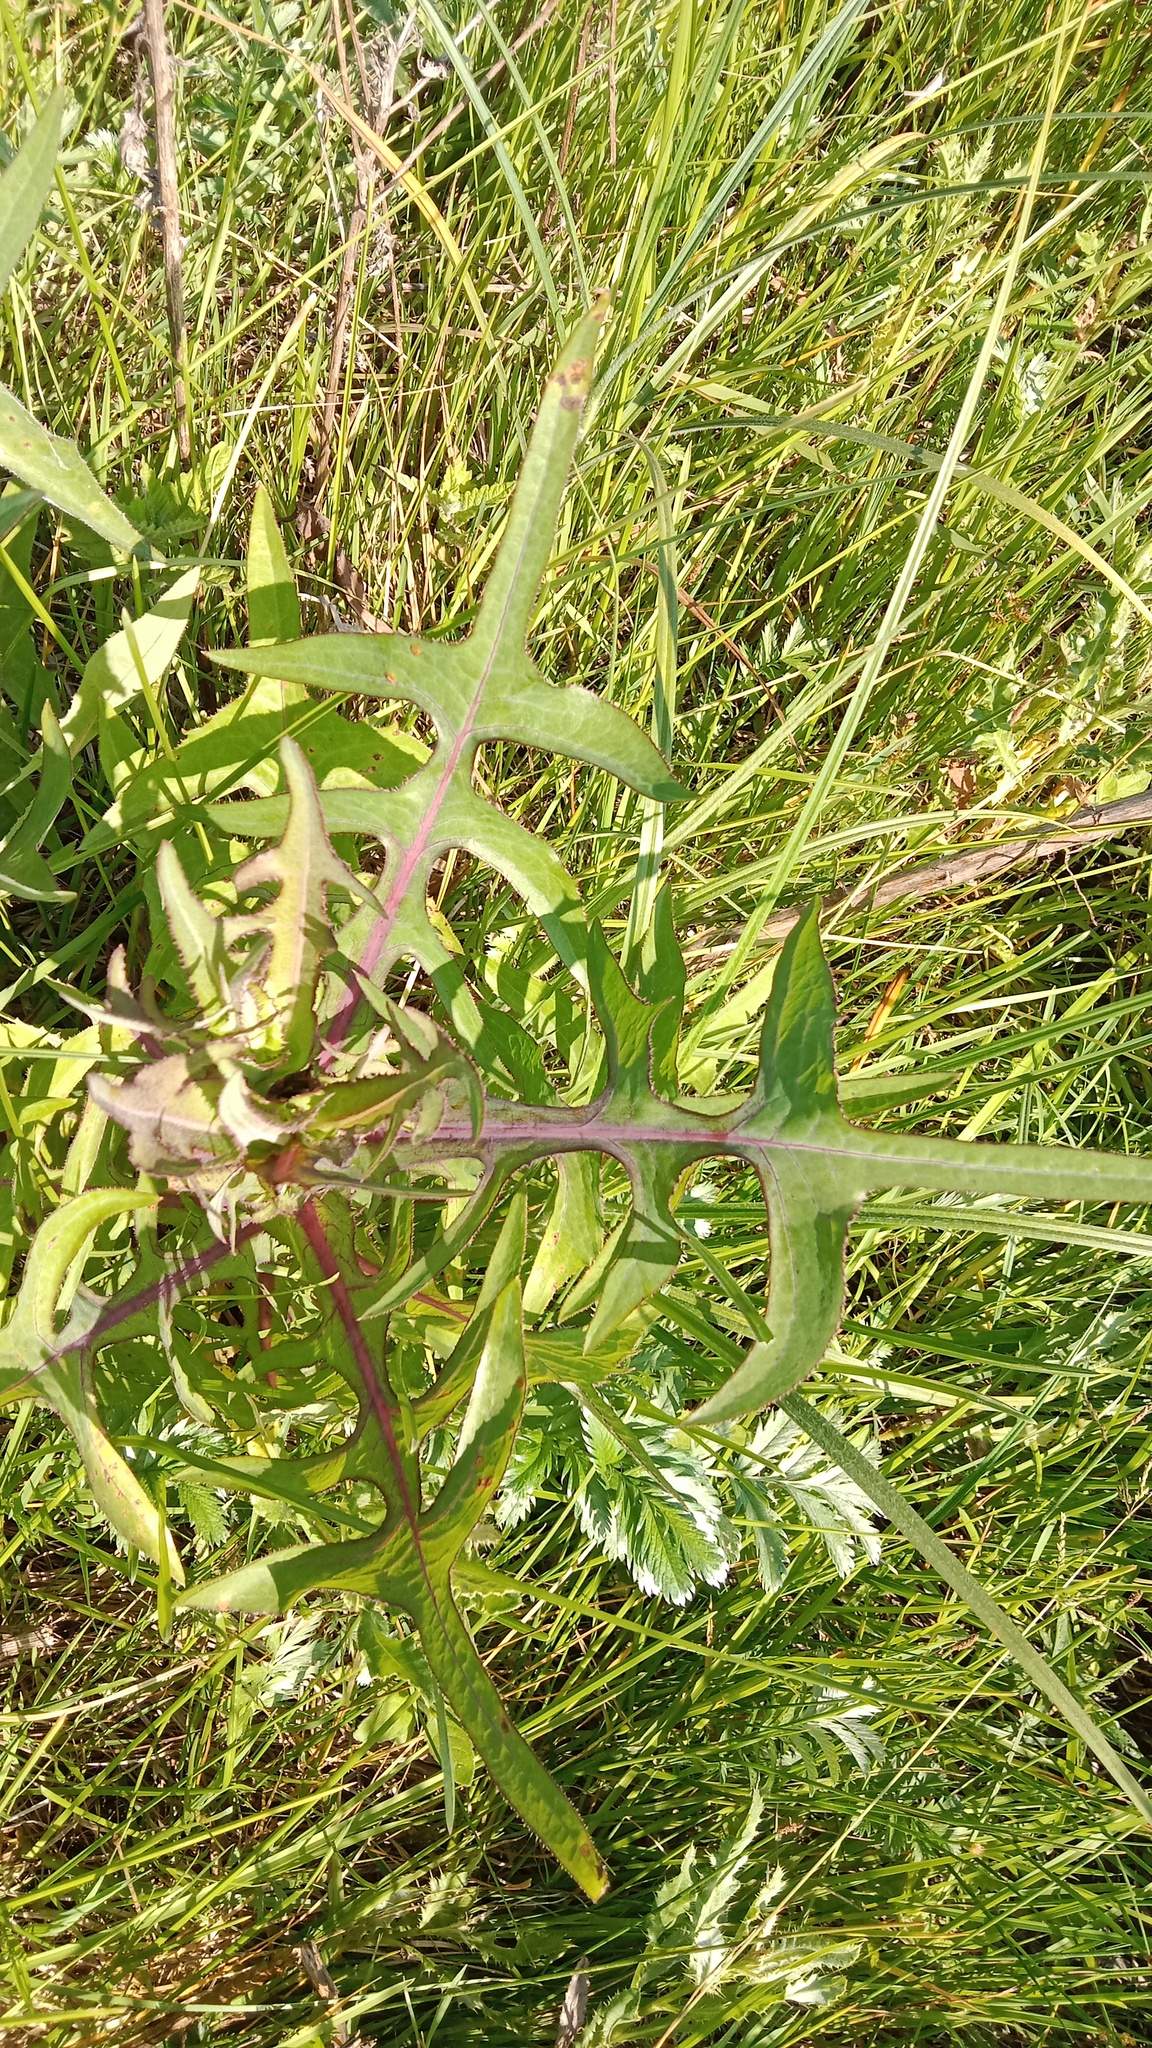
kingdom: Plantae
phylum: Tracheophyta
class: Magnoliopsida
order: Asterales
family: Asteraceae
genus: Sonchus
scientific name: Sonchus palustris
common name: Marsh sow-thistle
